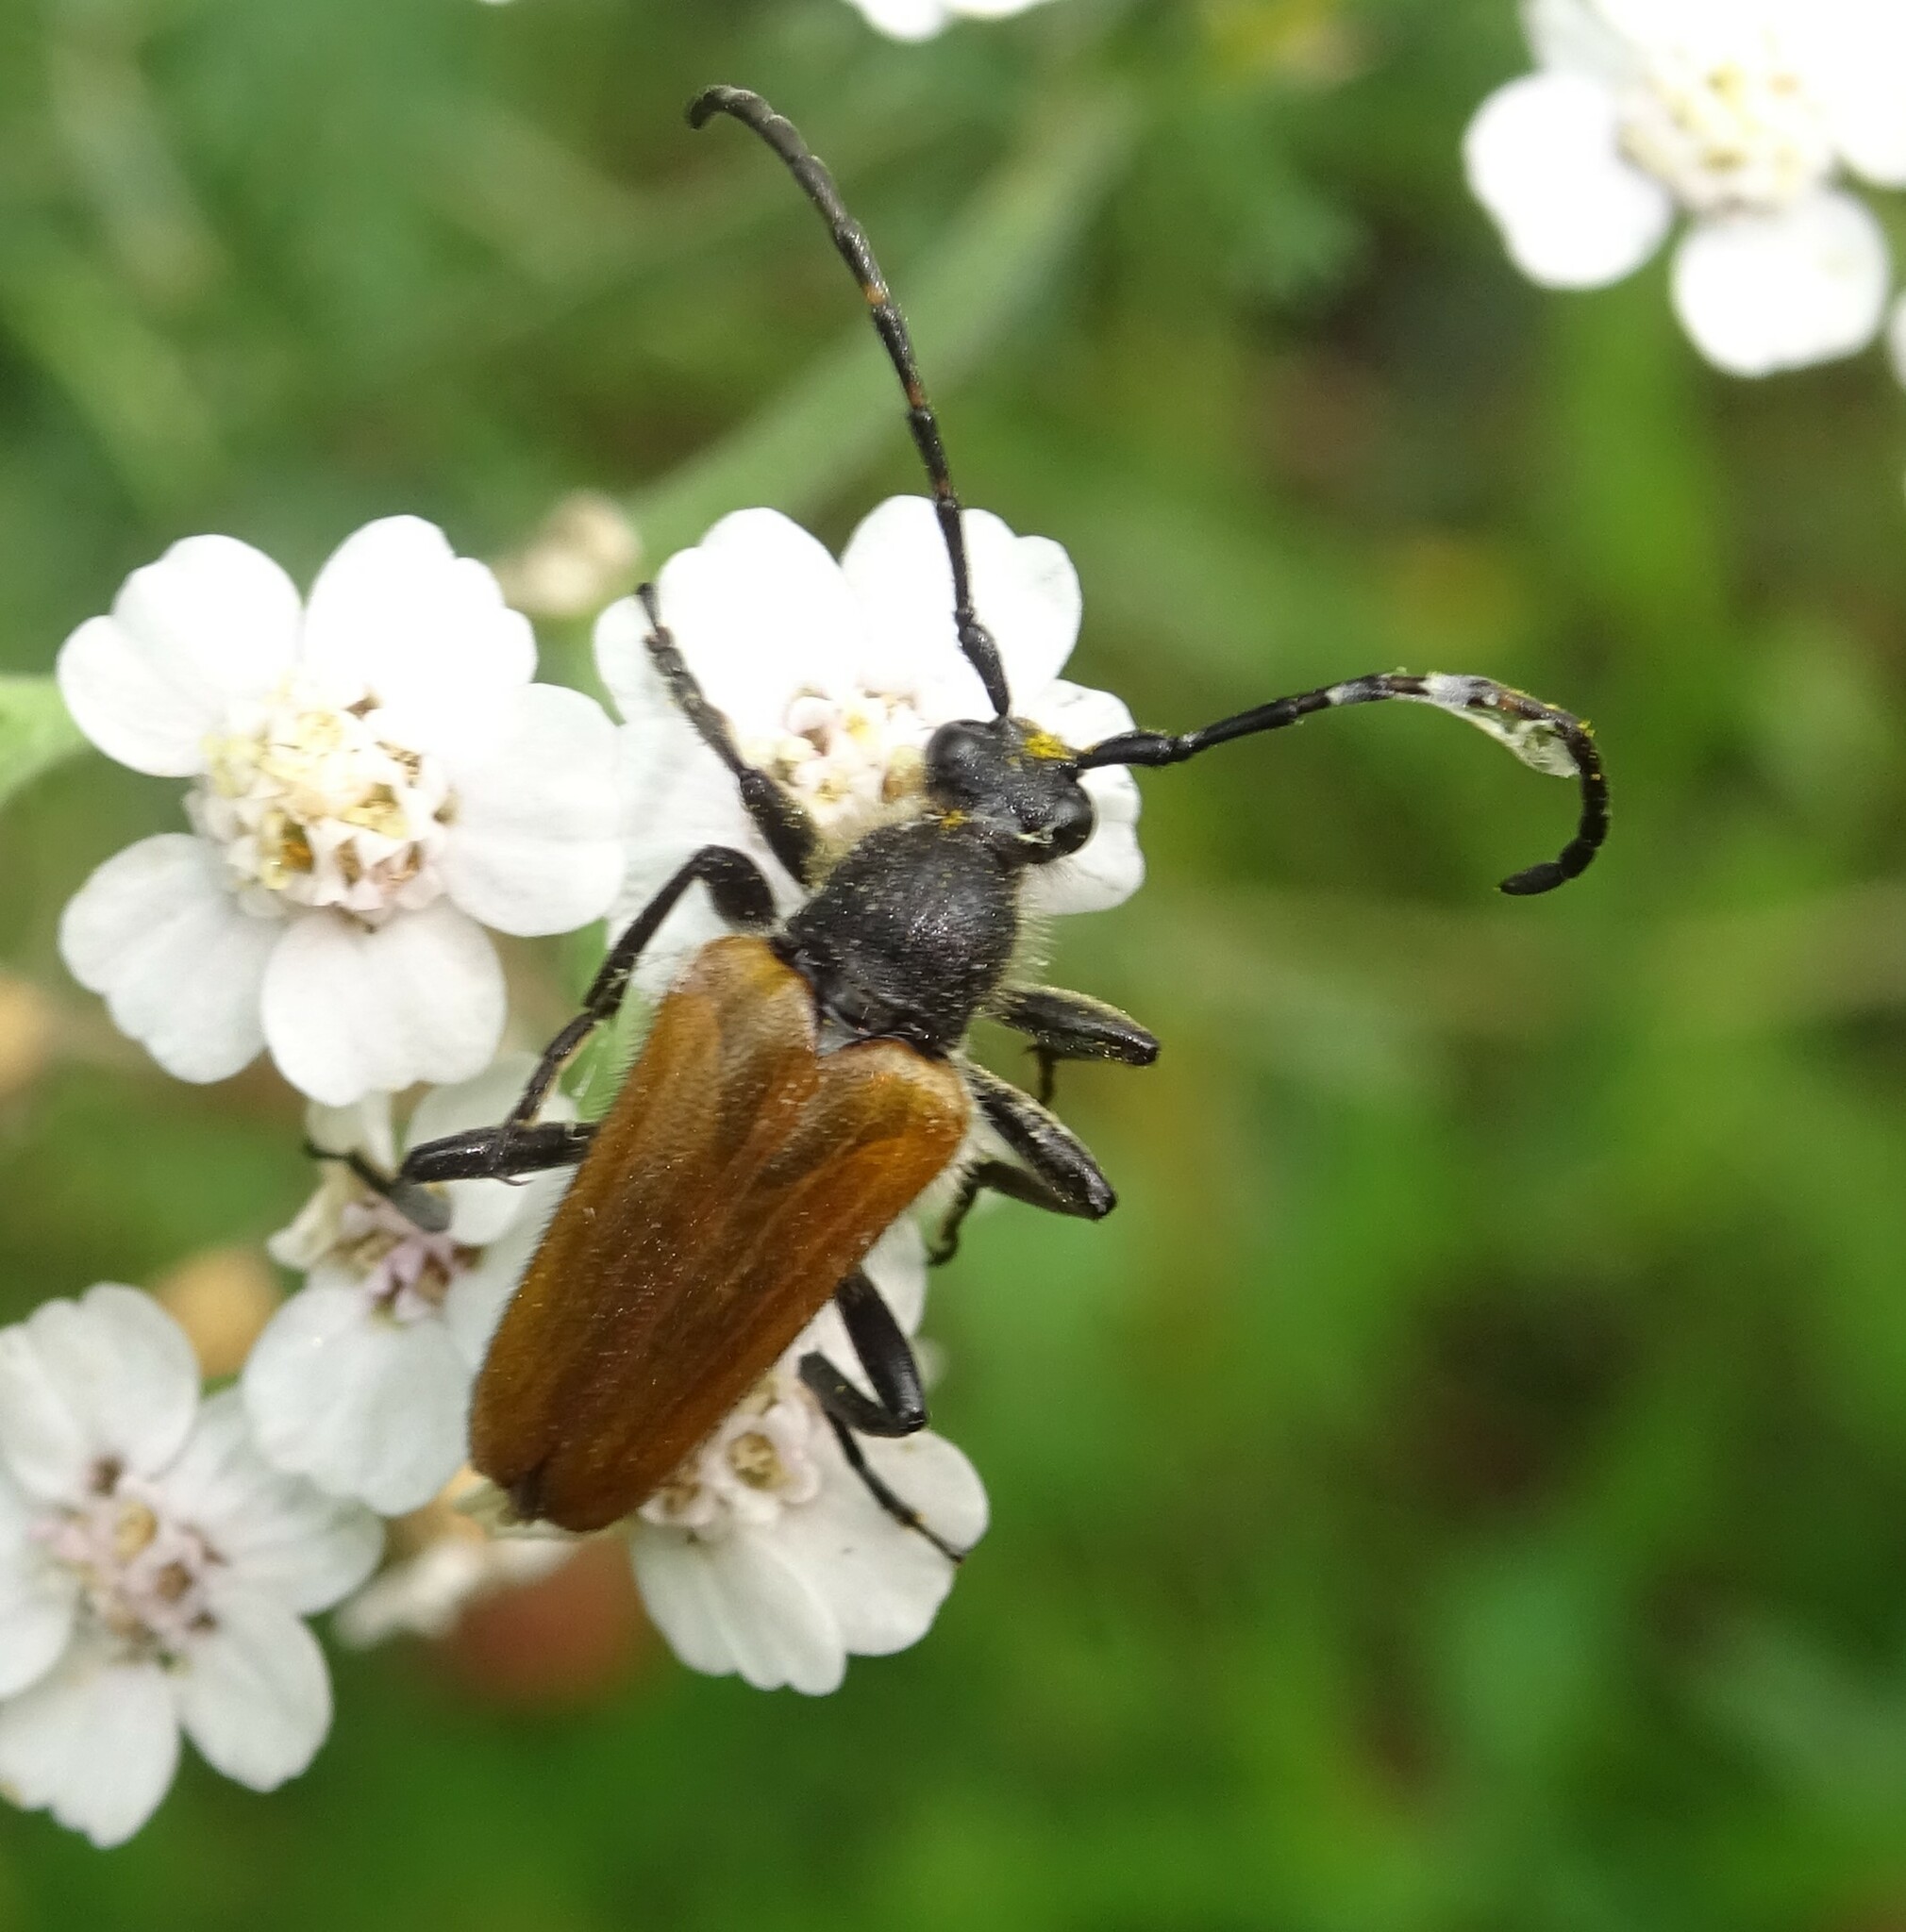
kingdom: Animalia
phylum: Arthropoda
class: Insecta
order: Coleoptera
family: Cerambycidae
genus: Paracorymbia
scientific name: Paracorymbia hybrida
